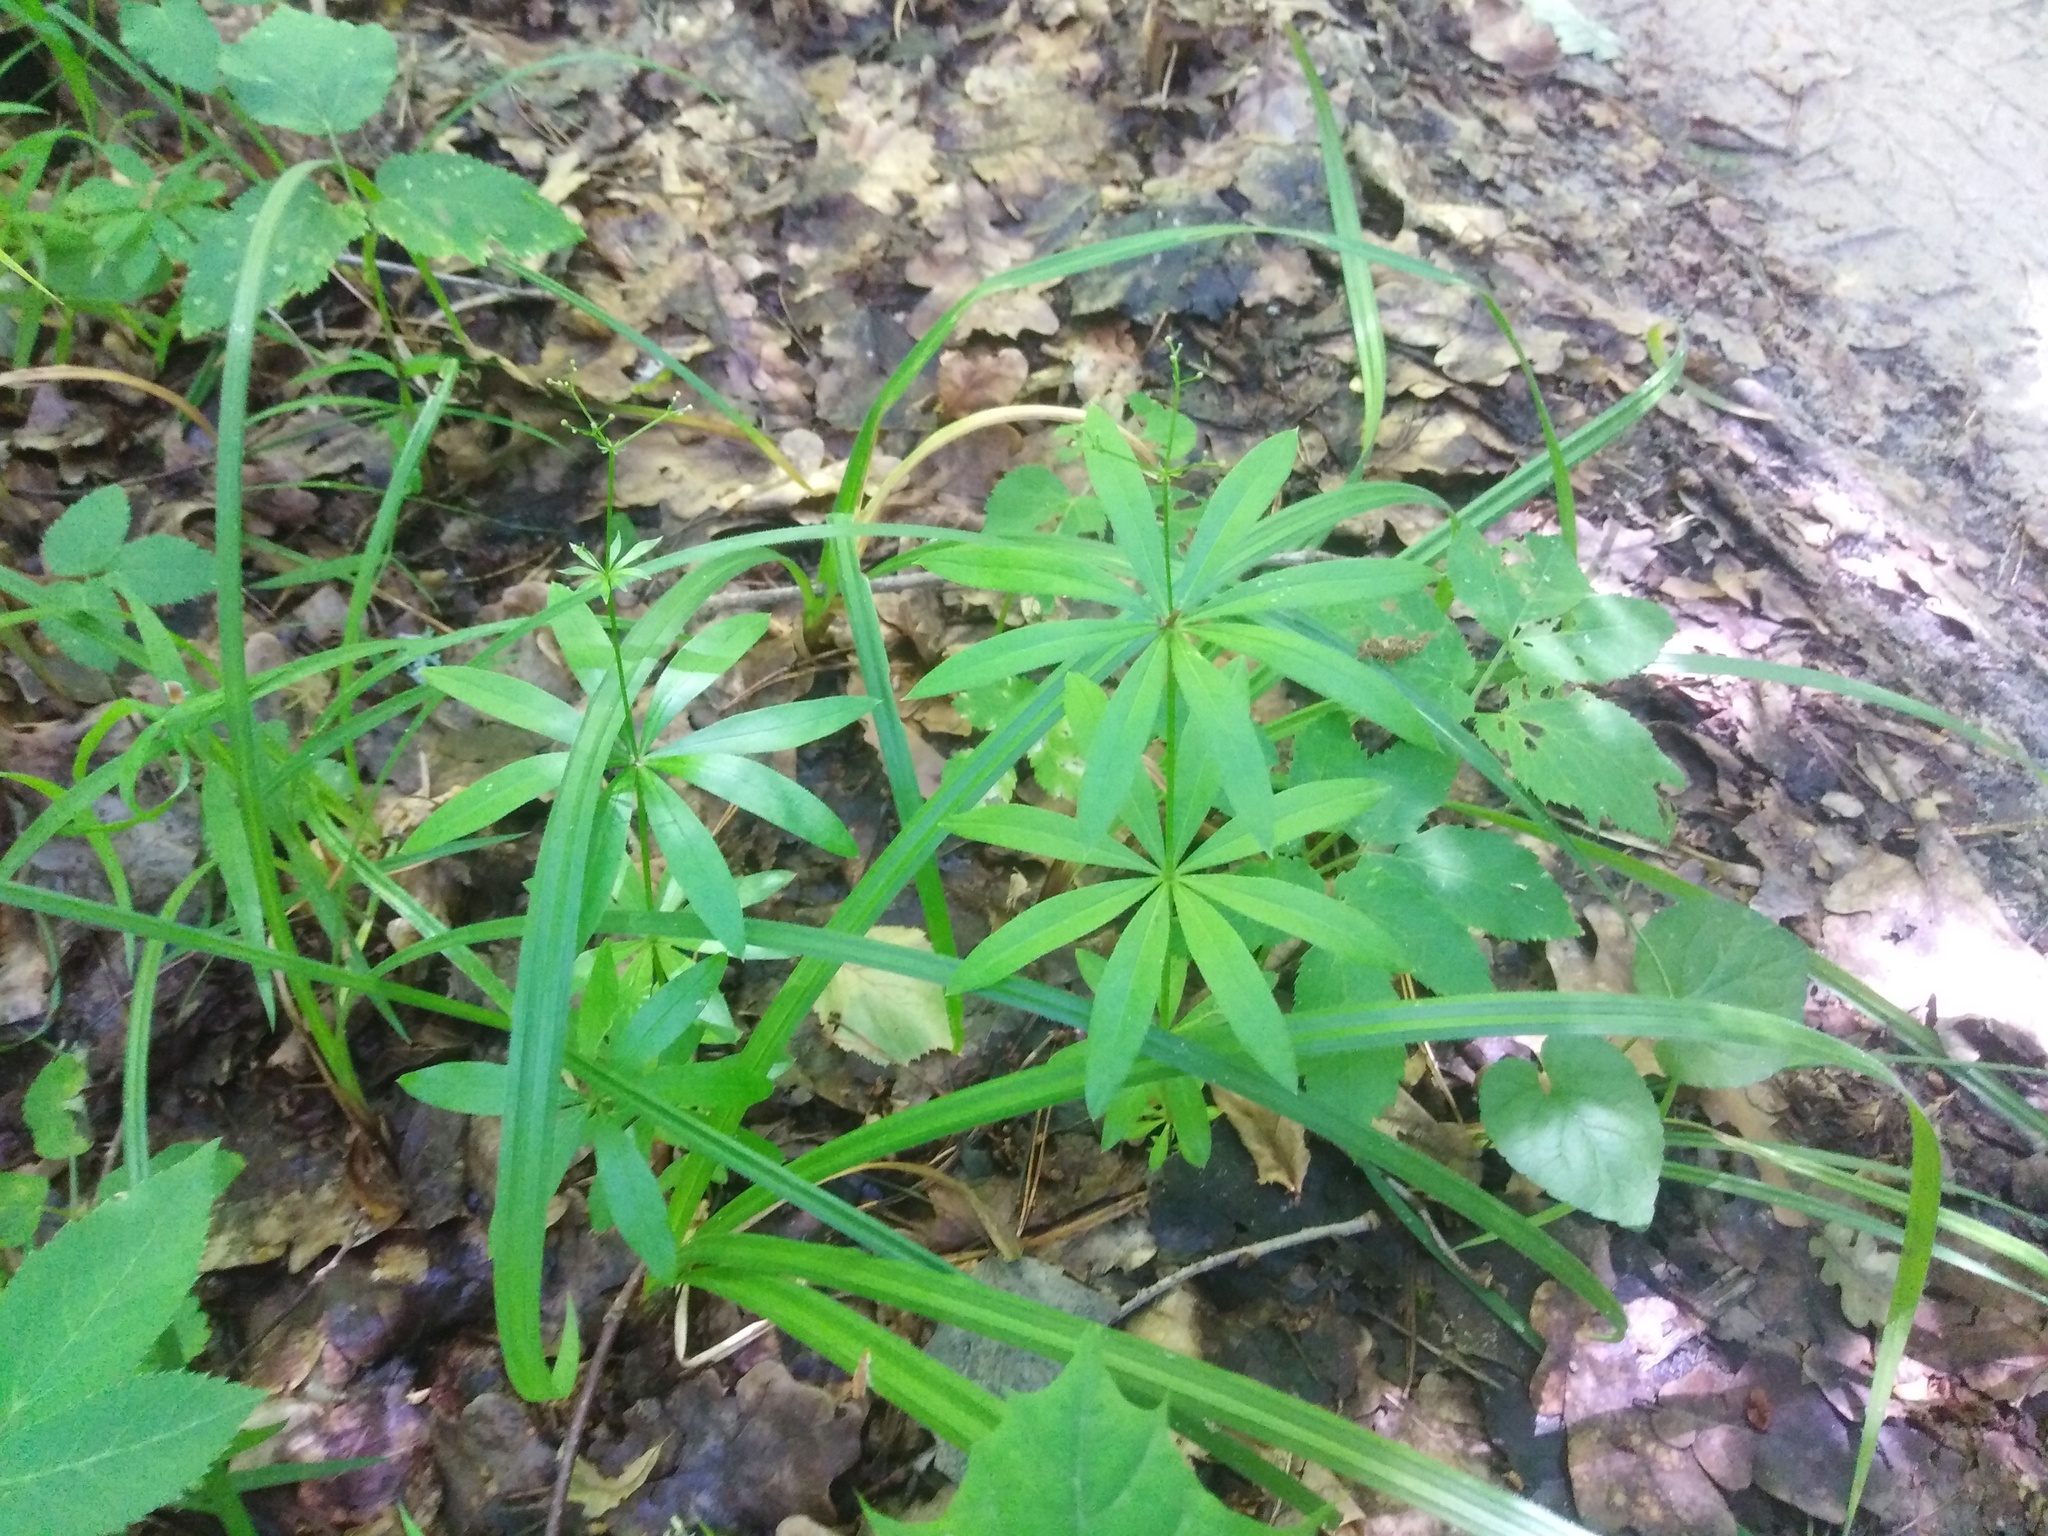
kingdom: Plantae
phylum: Tracheophyta
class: Magnoliopsida
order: Gentianales
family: Rubiaceae
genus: Galium
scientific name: Galium odoratum
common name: Sweet woodruff
